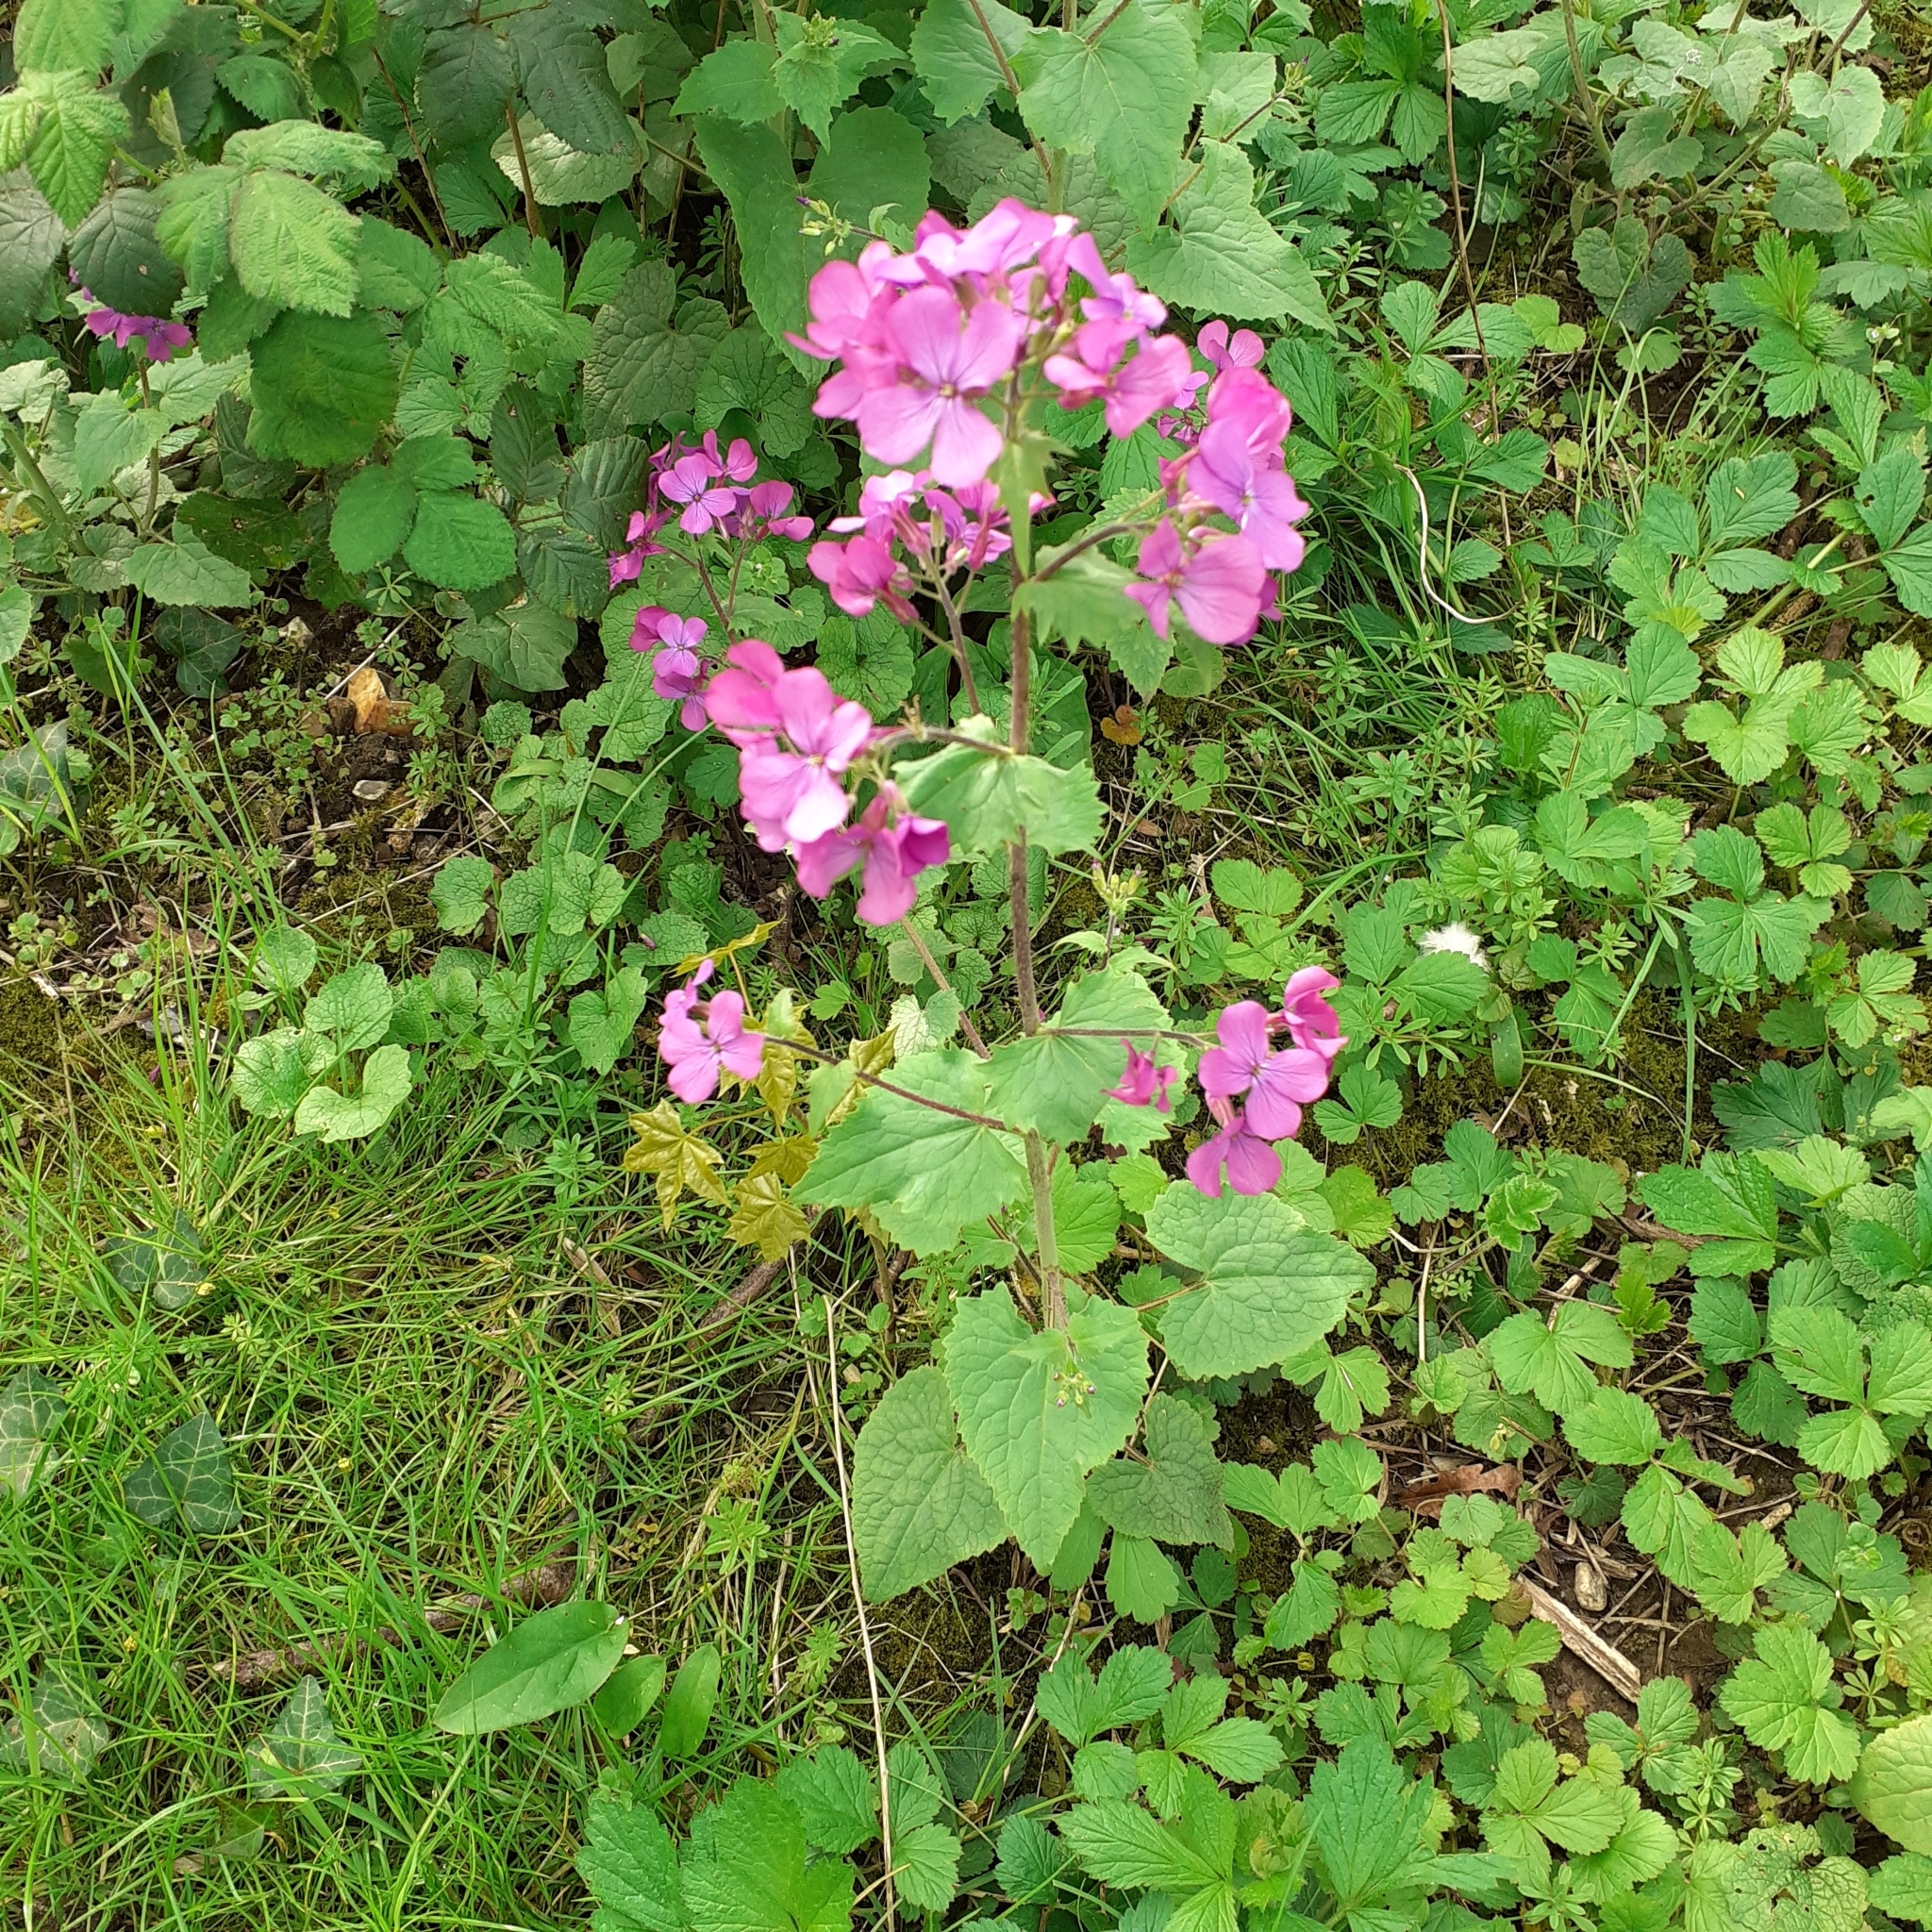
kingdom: Plantae
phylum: Tracheophyta
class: Magnoliopsida
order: Brassicales
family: Brassicaceae
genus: Lunaria
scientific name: Lunaria annua
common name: Honesty
